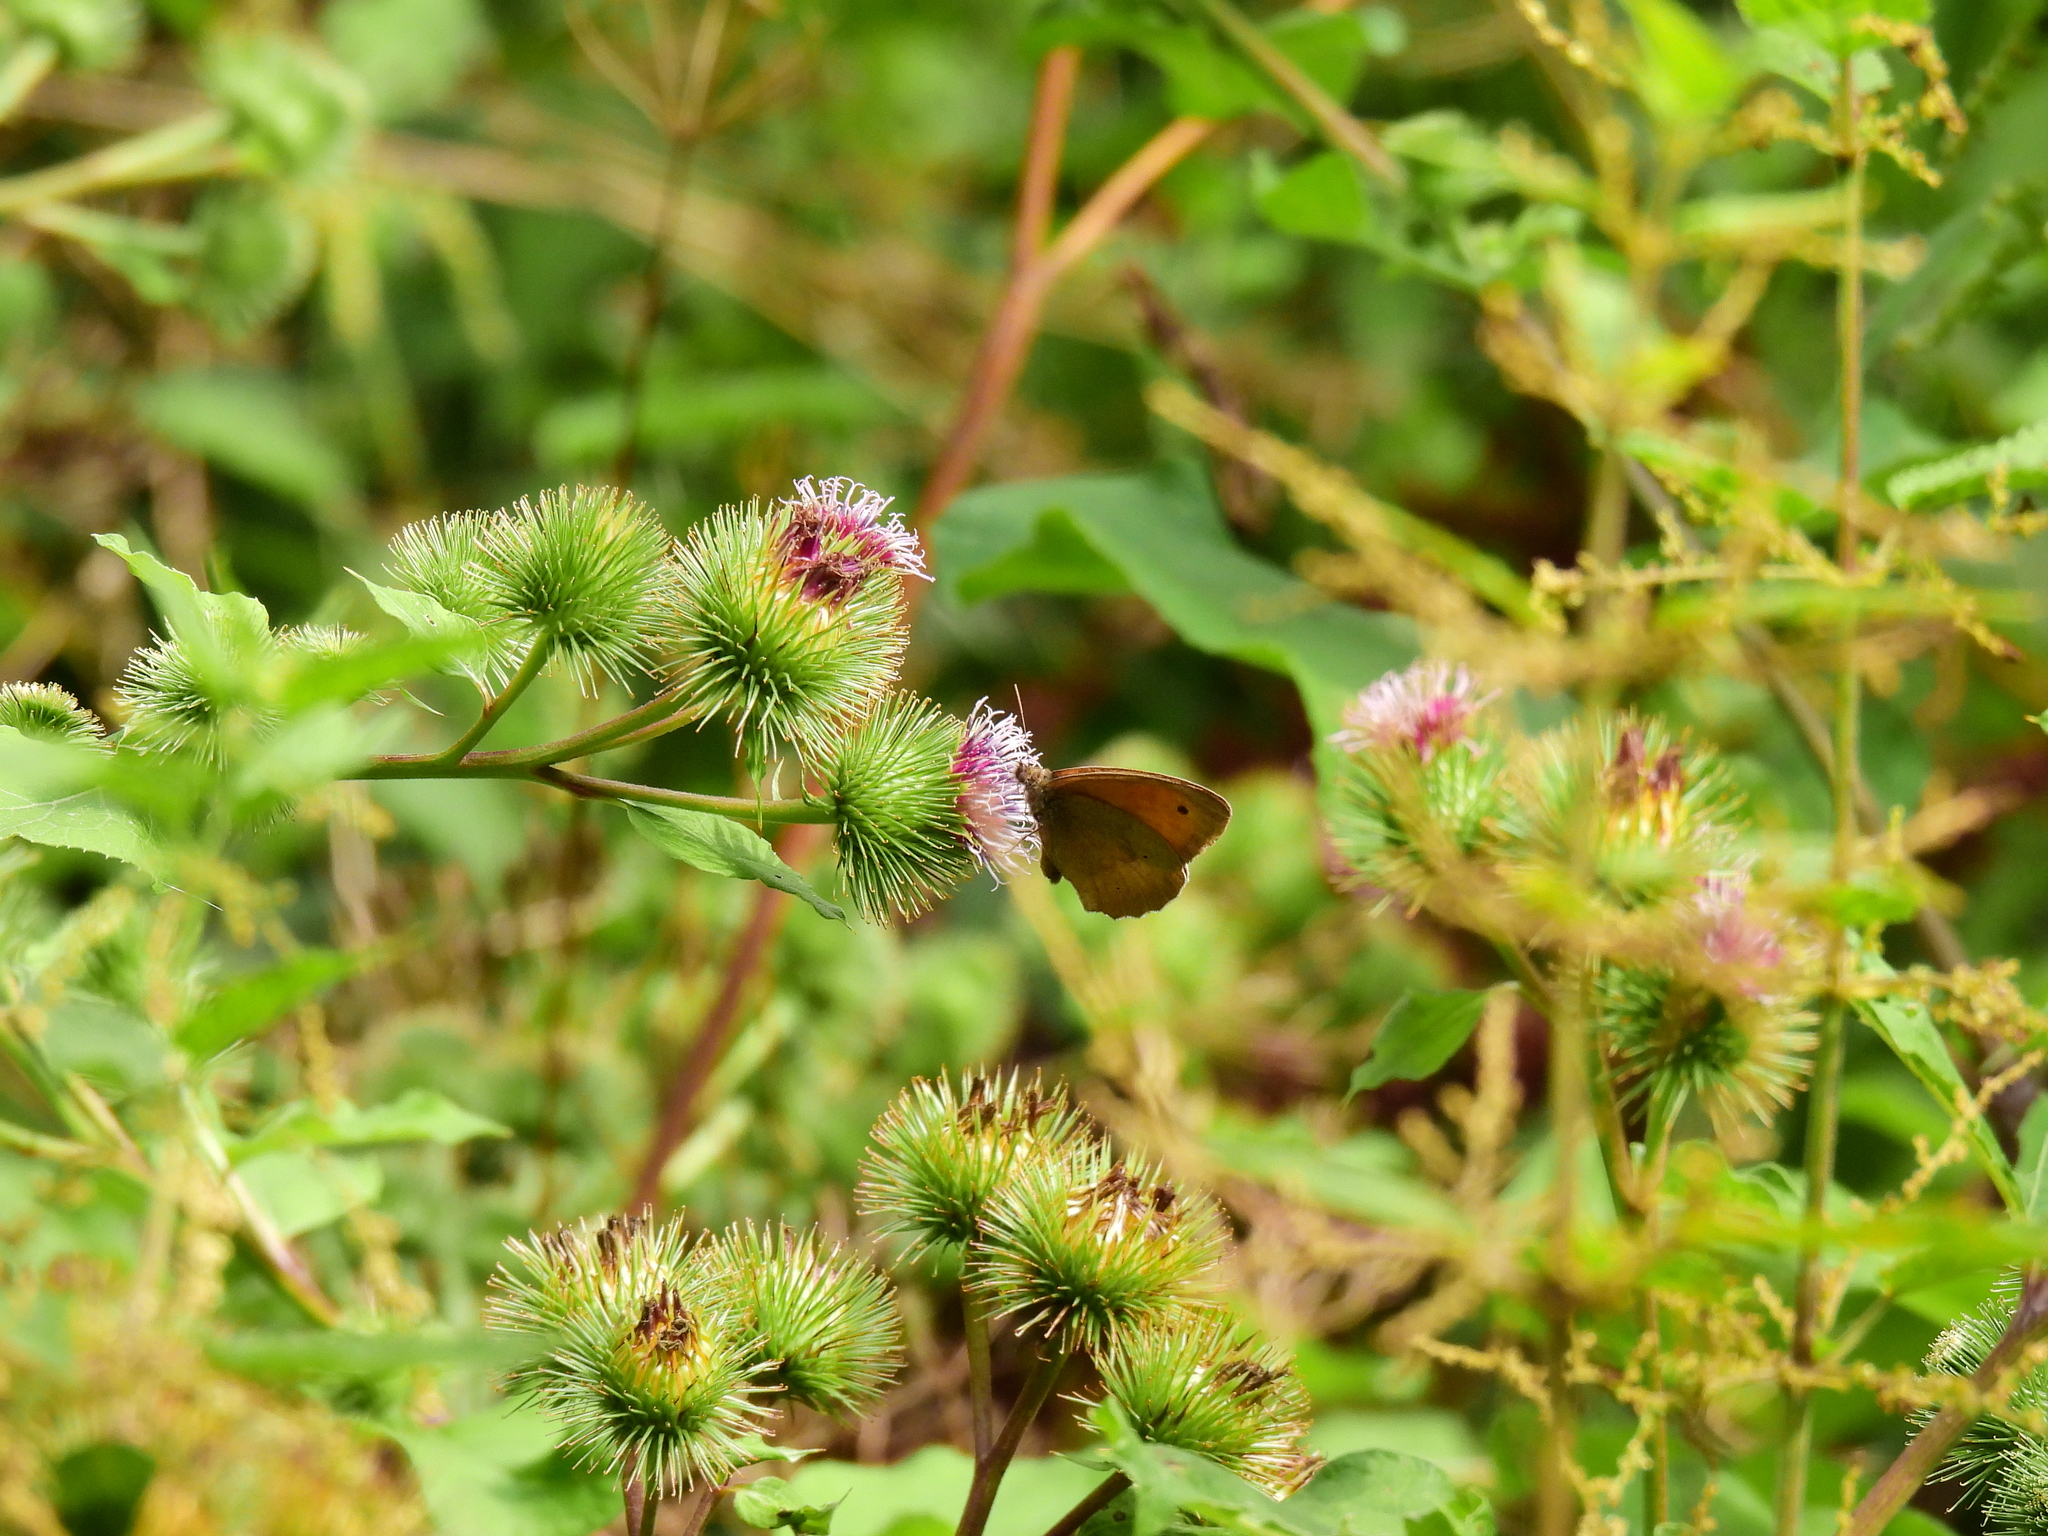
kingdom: Animalia
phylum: Arthropoda
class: Insecta
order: Lepidoptera
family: Nymphalidae
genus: Maniola
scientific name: Maniola jurtina
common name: Meadow brown
